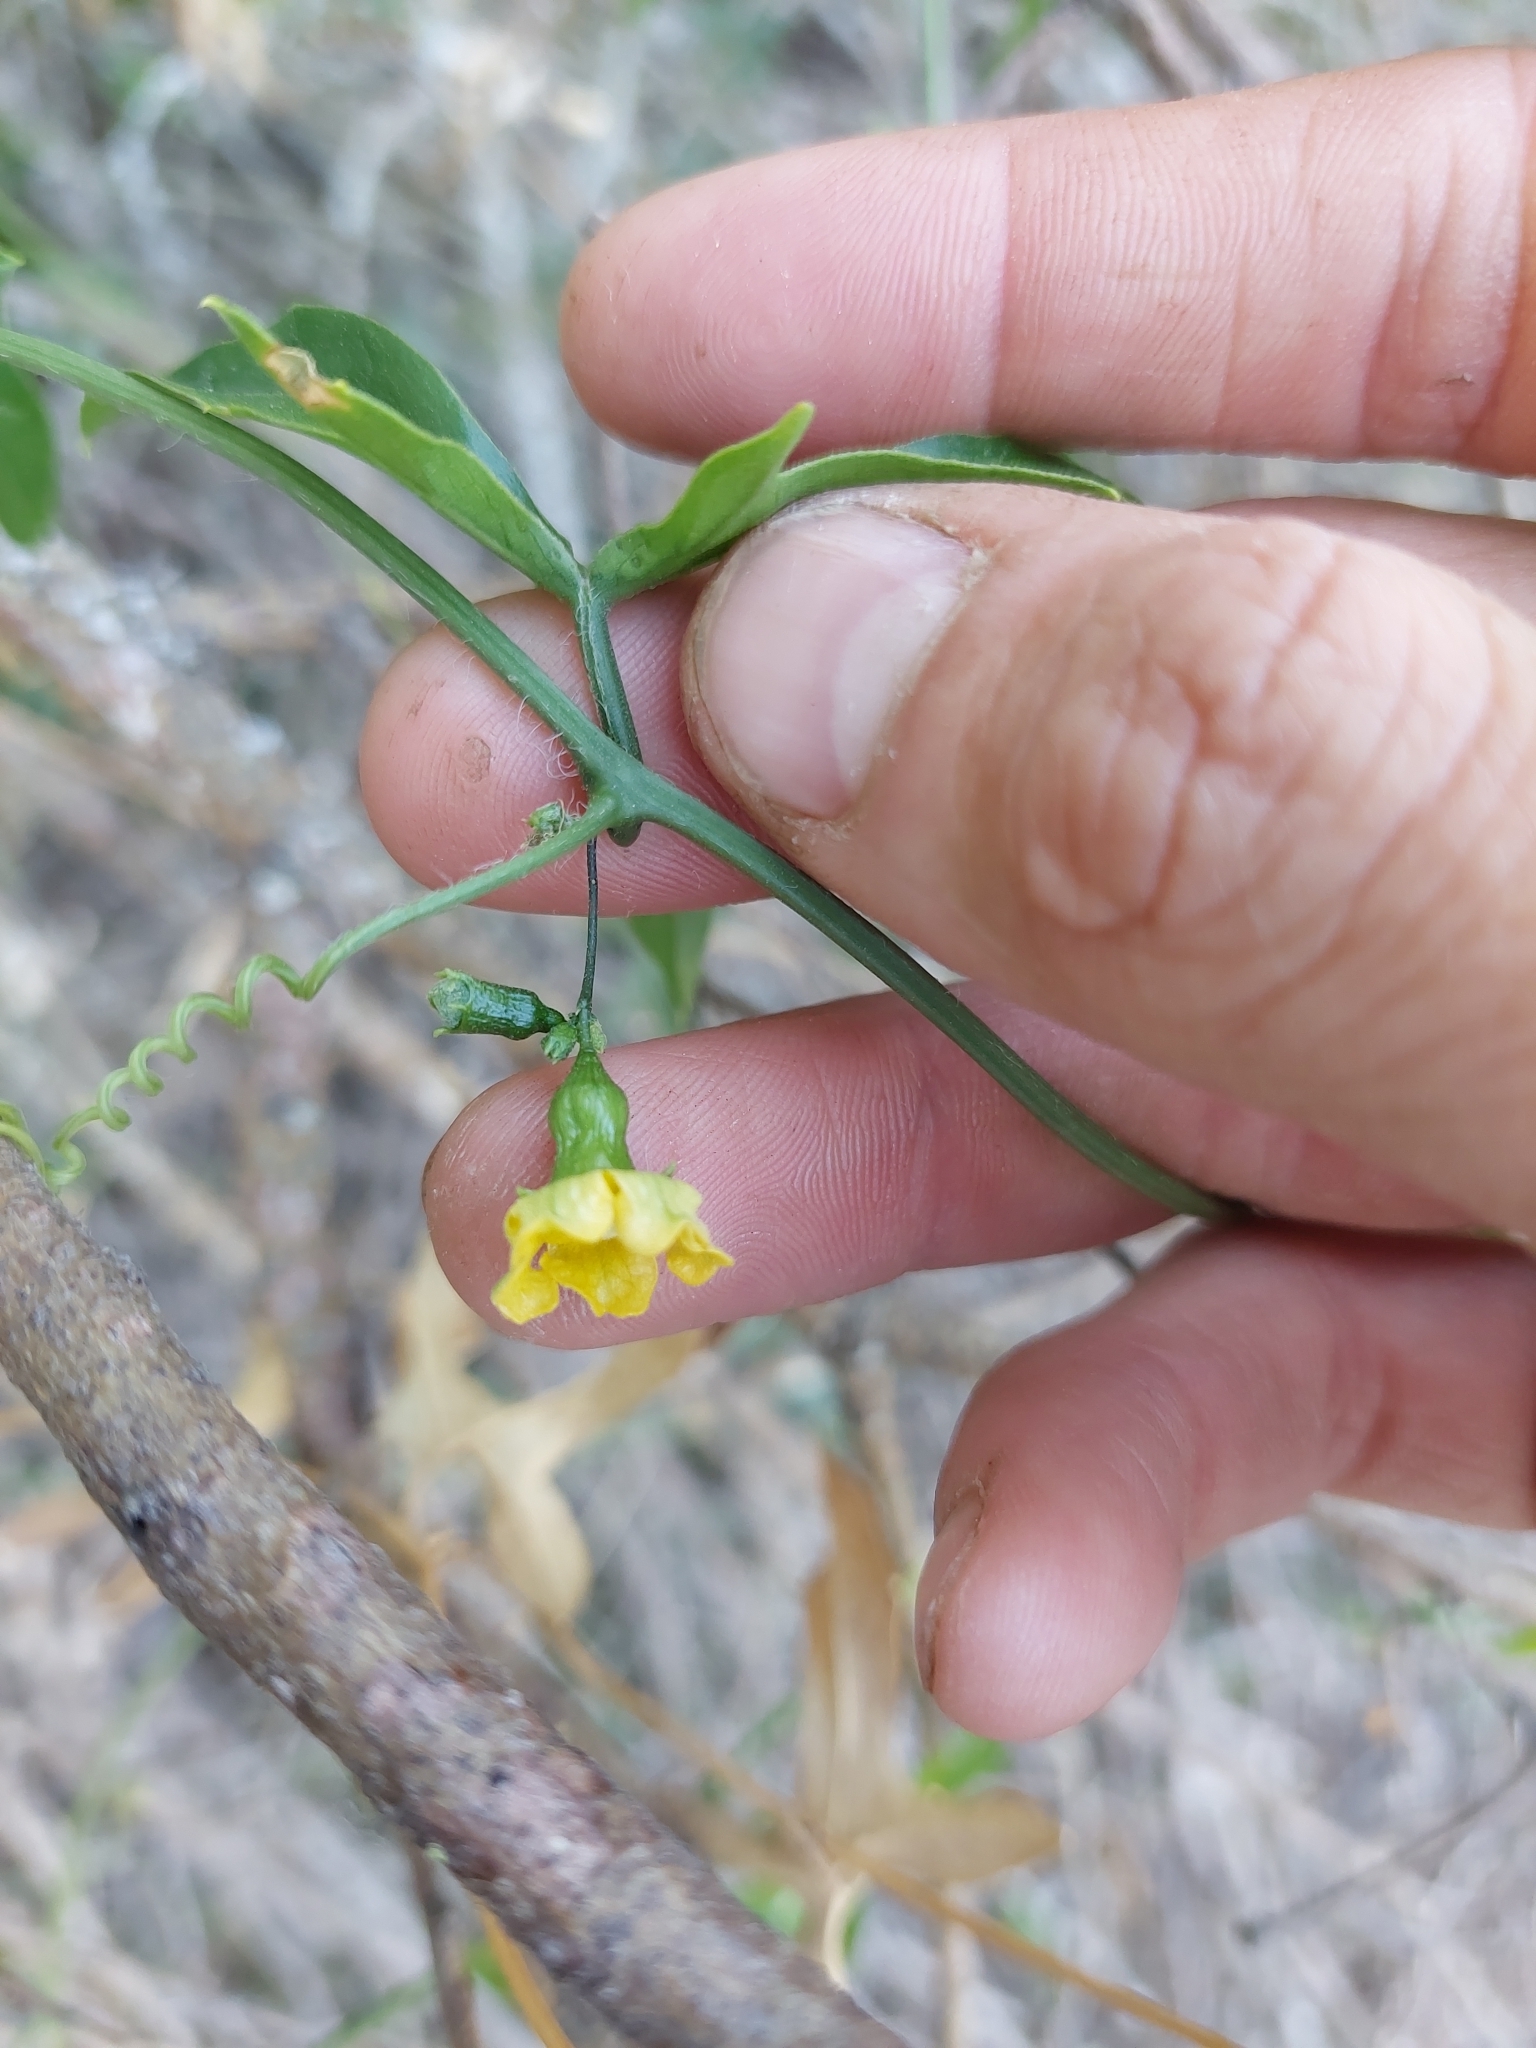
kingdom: Plantae
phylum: Tracheophyta
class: Magnoliopsida
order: Cucurbitales
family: Cucurbitaceae
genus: Cucurbitella
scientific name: Cucurbitella asperata
